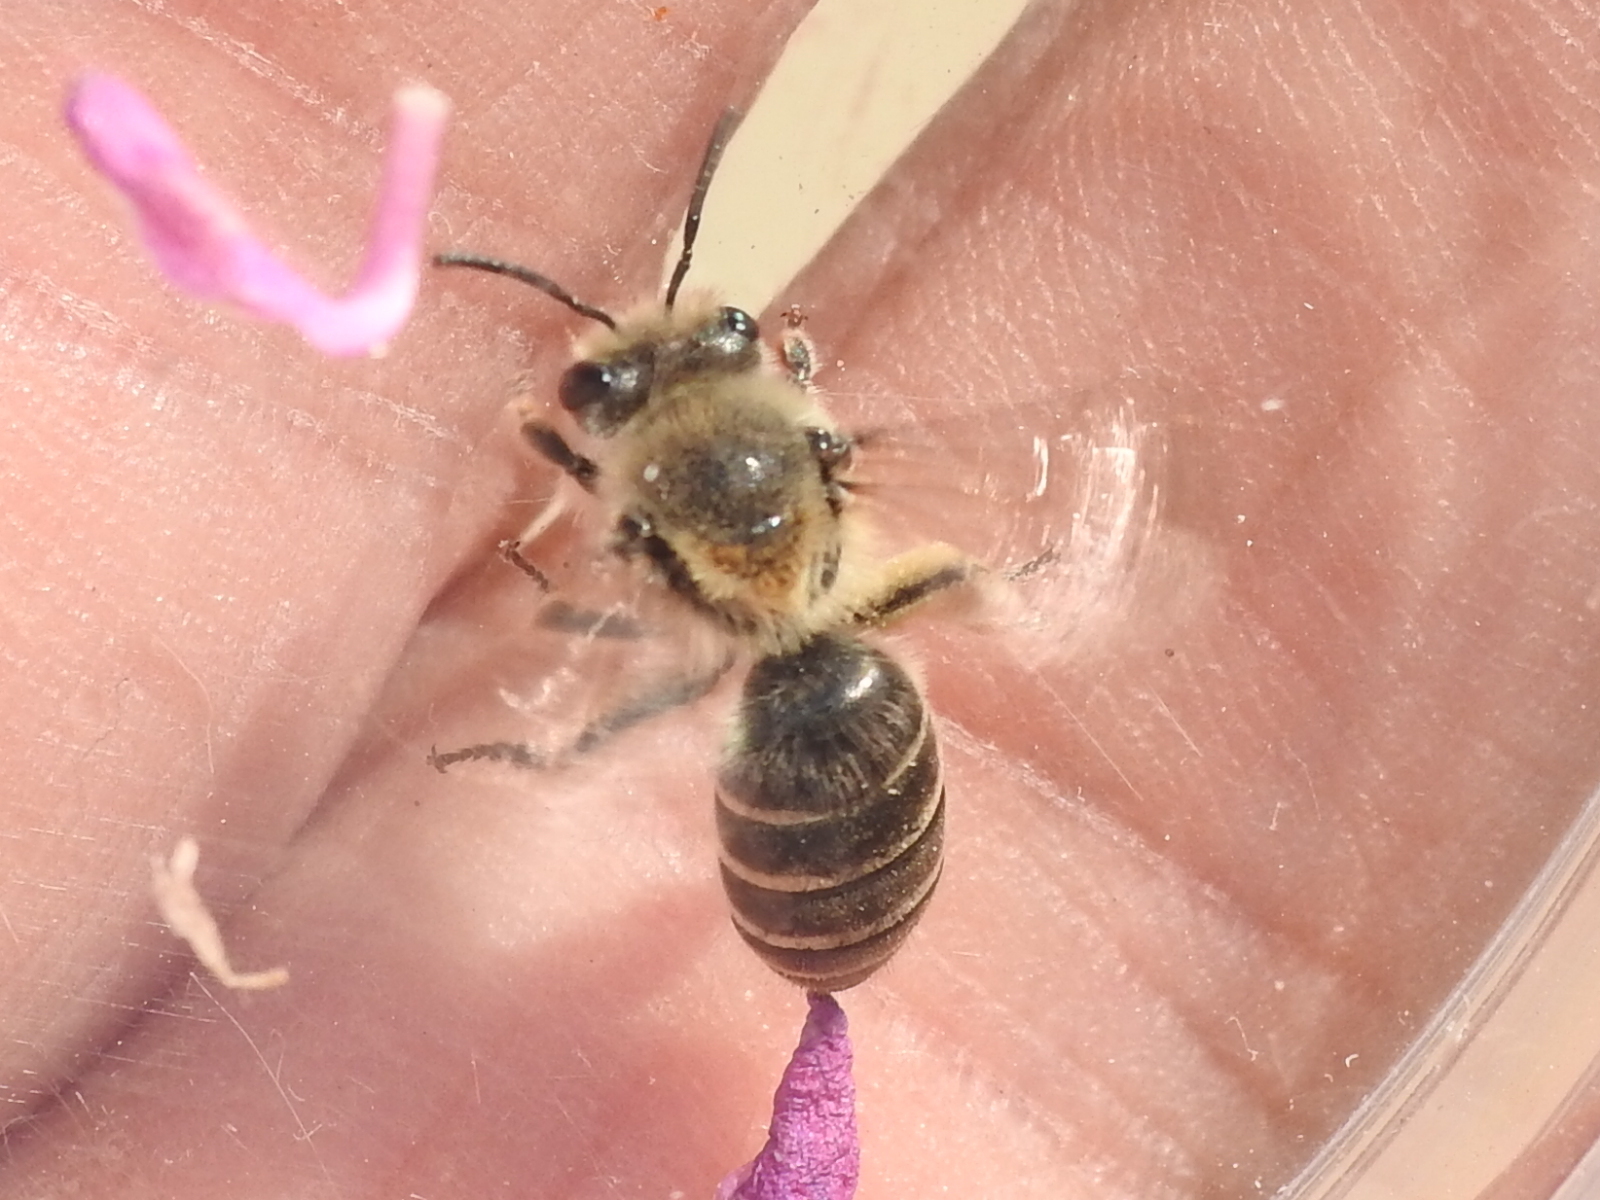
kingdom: Animalia
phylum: Arthropoda
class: Insecta
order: Hymenoptera
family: Colletidae
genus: Colletes
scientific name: Colletes inaequalis
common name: Unequal cellophane bee
